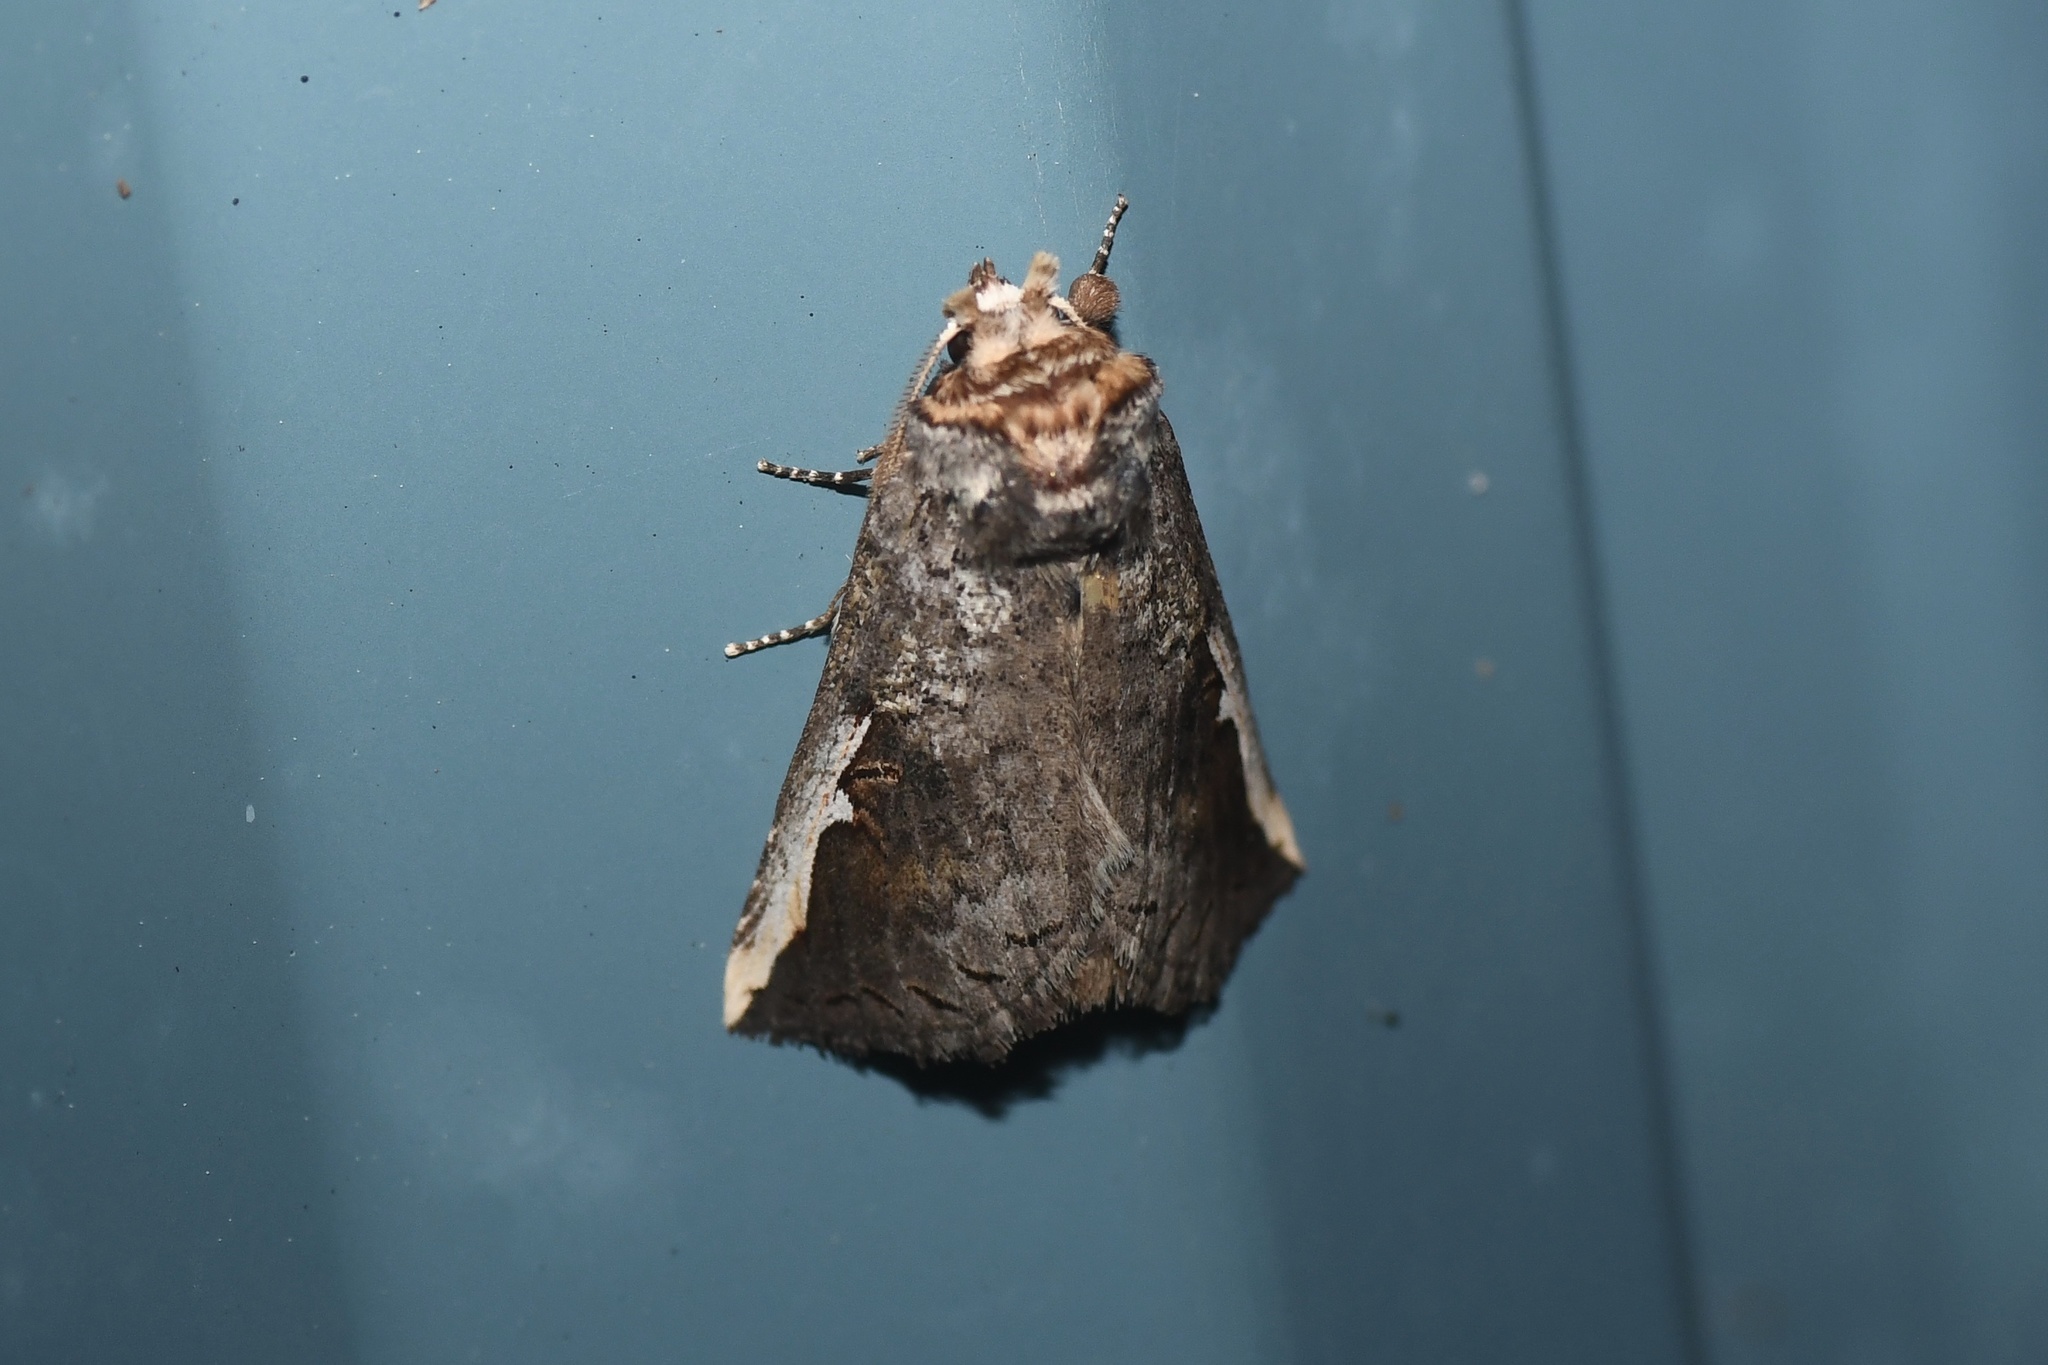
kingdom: Animalia
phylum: Arthropoda
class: Insecta
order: Lepidoptera
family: Notodontidae
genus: Symmerista
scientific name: Symmerista albifrons
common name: White-headed prominent
